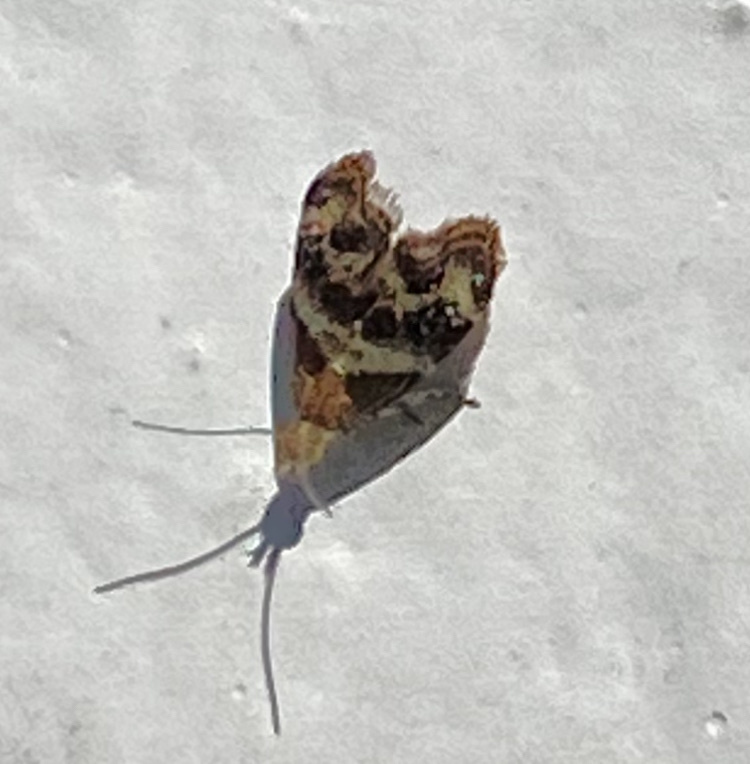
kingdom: Animalia
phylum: Arthropoda
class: Insecta
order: Lepidoptera
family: Choreutidae
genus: Tebenna
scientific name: Tebenna micalis
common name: Vagrant twitcher
